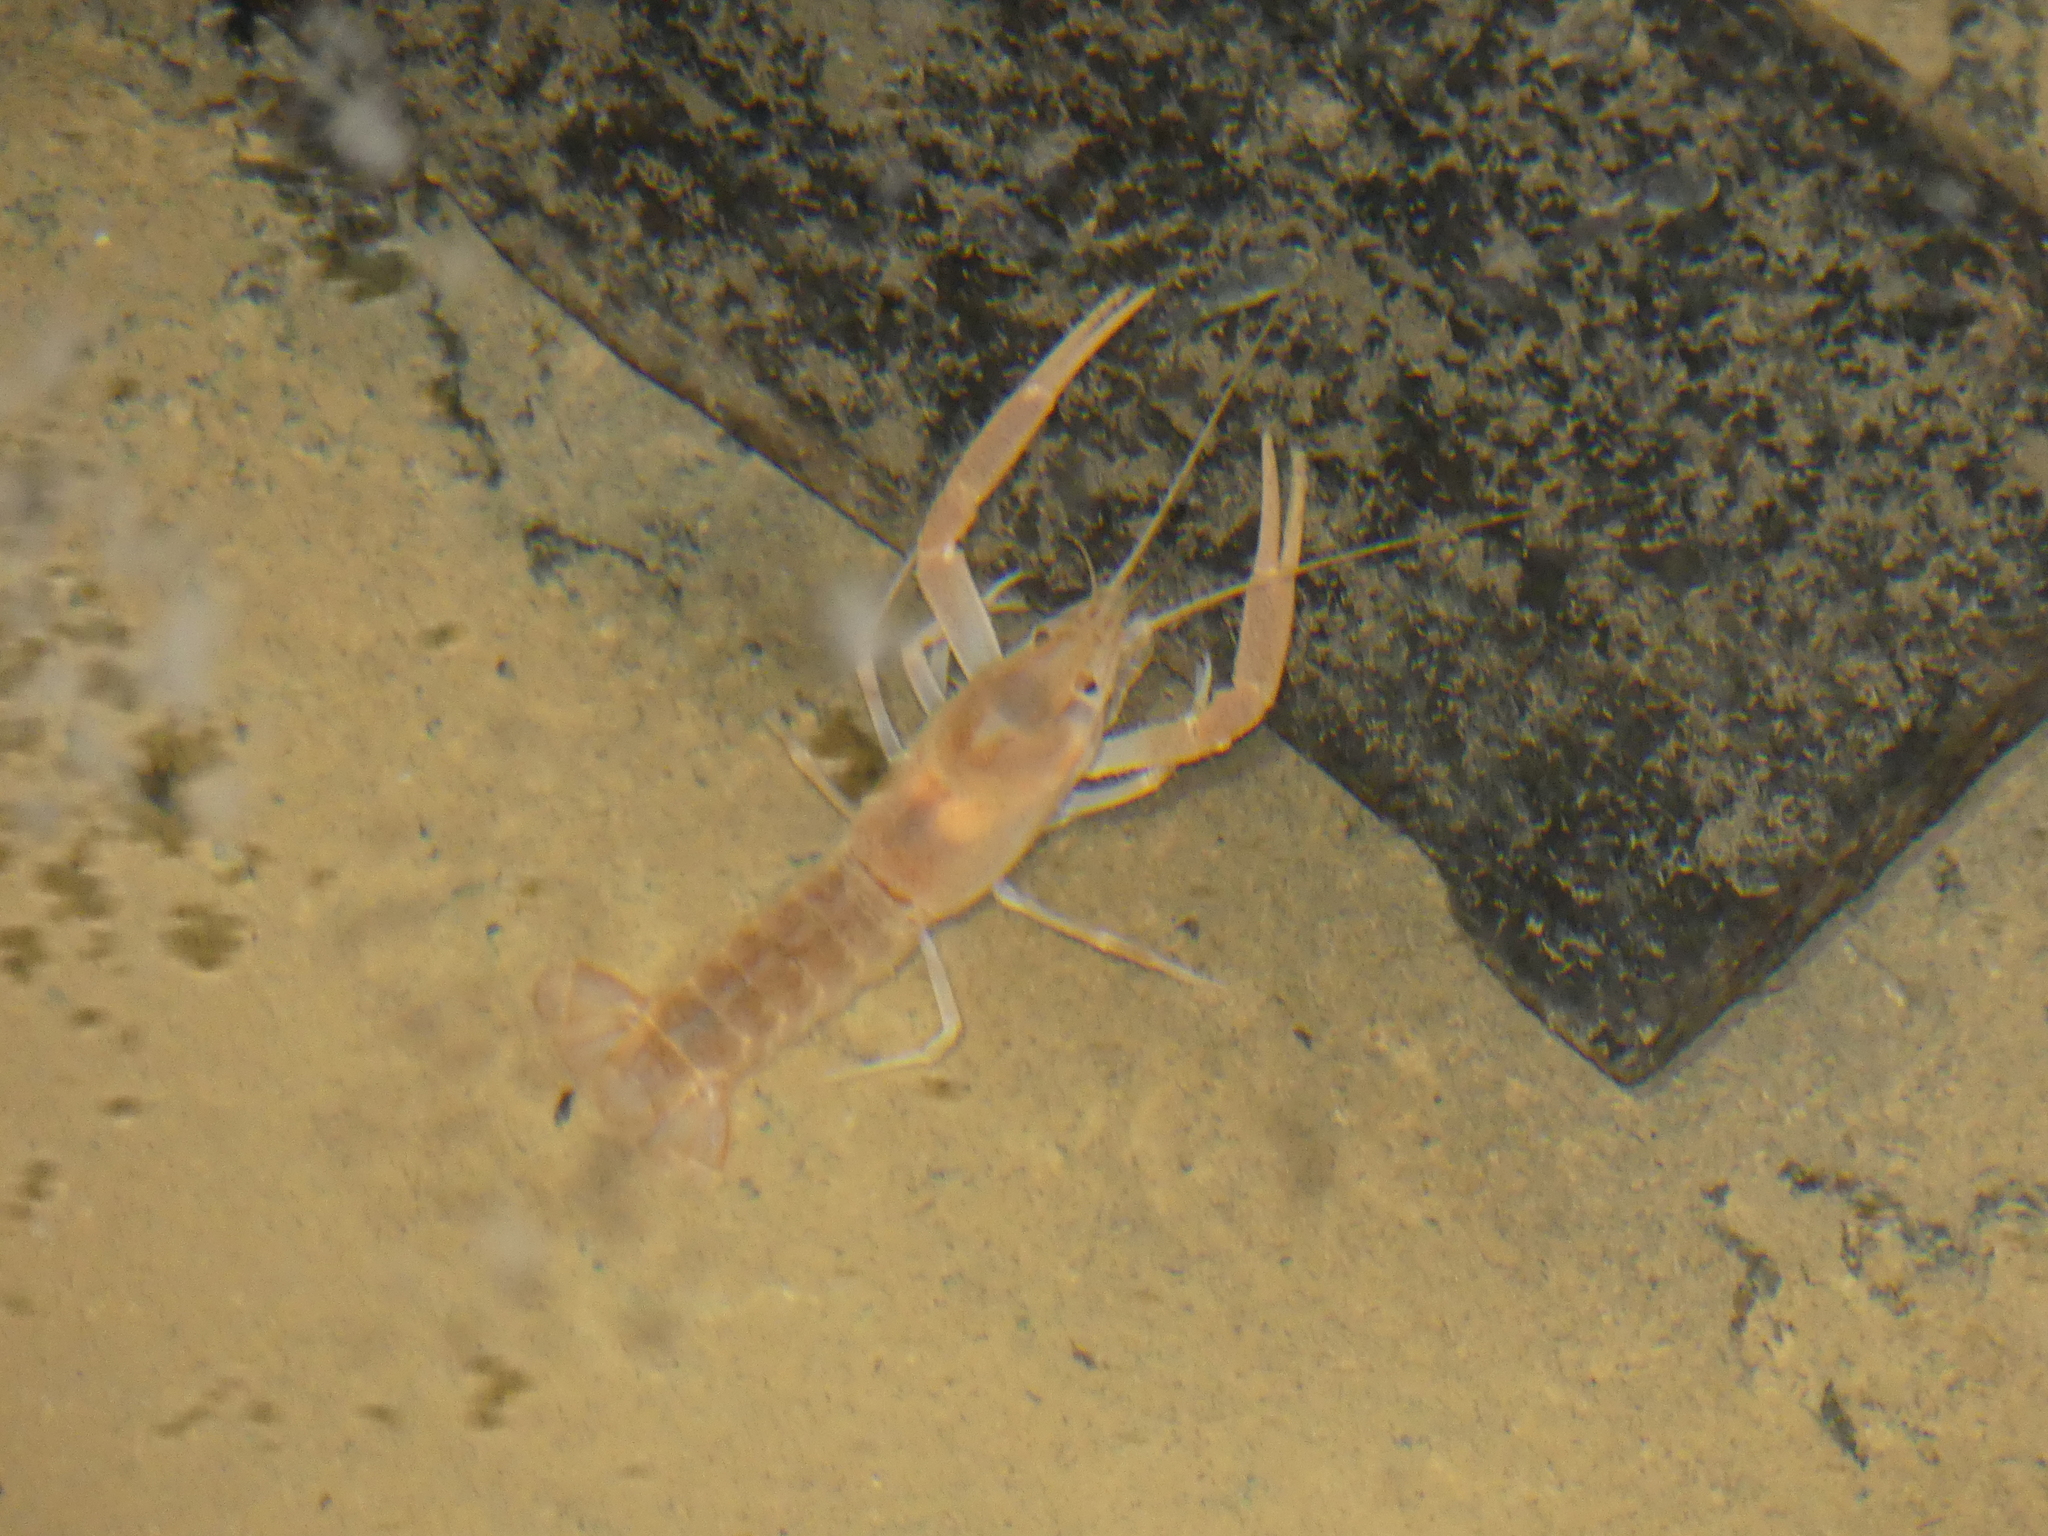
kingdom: Animalia
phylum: Arthropoda
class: Malacostraca
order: Decapoda
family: Cambaridae
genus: Procambarus
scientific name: Procambarus niveus
